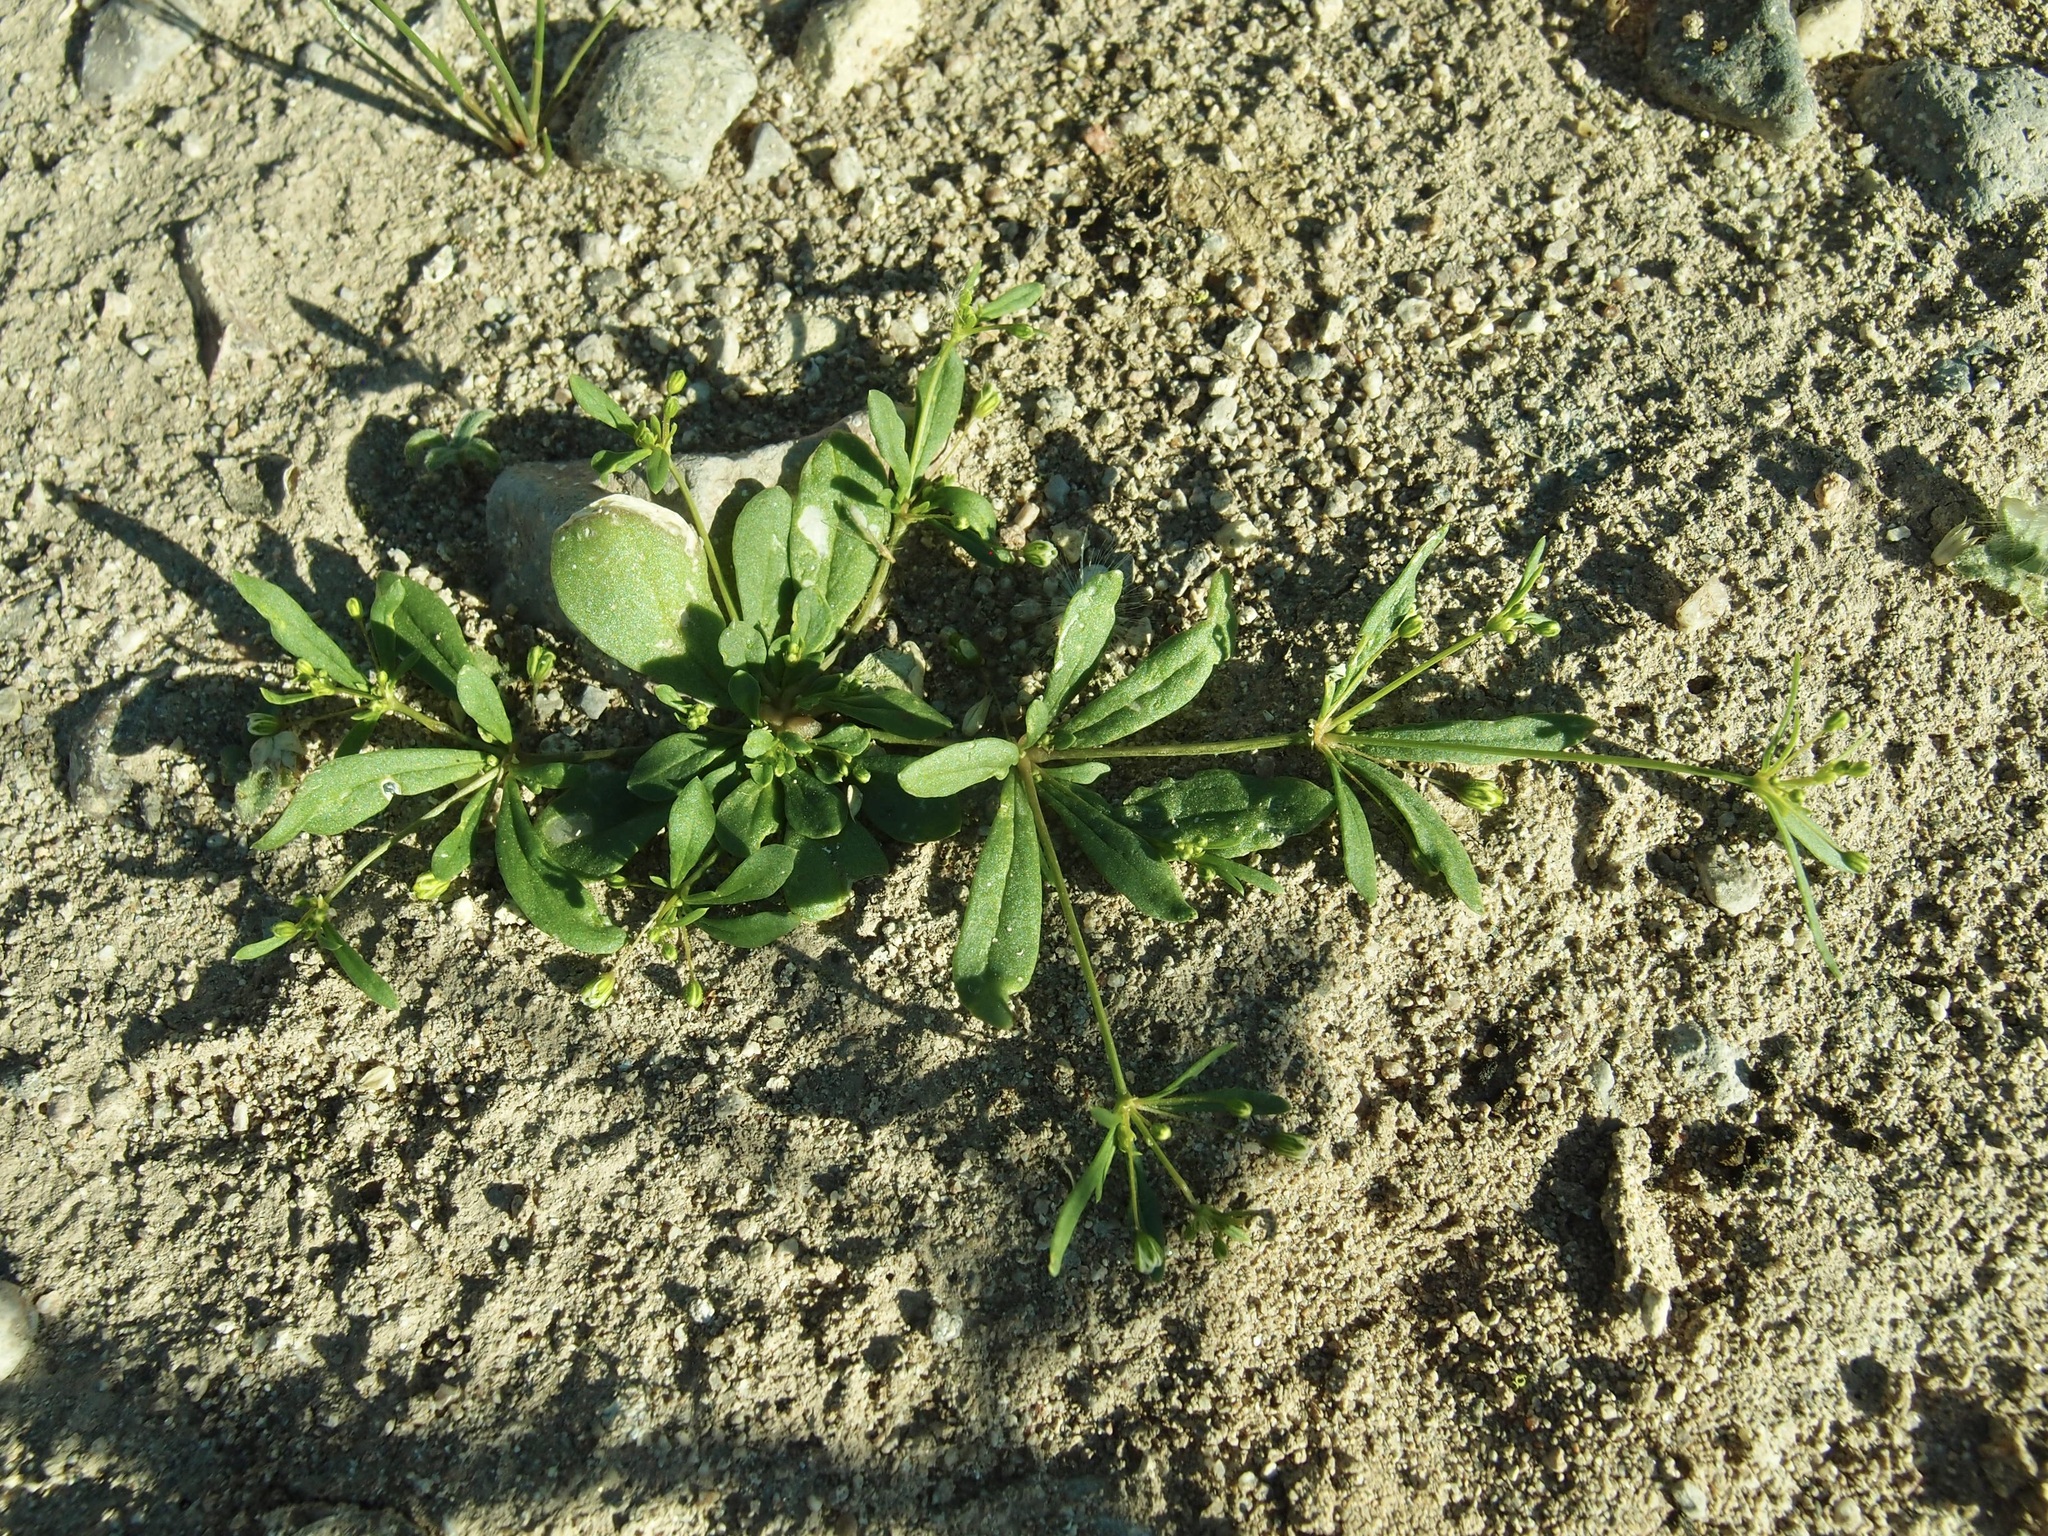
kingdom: Plantae
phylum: Tracheophyta
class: Magnoliopsida
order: Caryophyllales
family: Molluginaceae
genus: Mollugo
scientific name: Mollugo verticillata
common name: Green carpetweed
